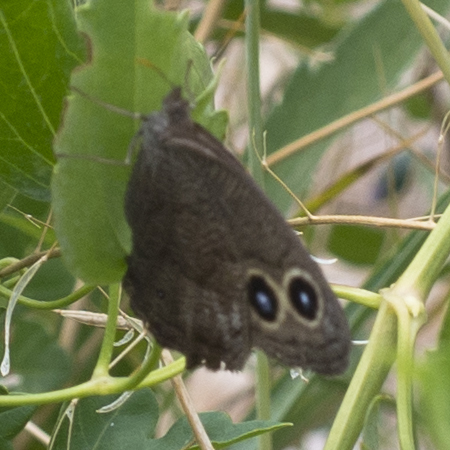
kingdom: Animalia
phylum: Arthropoda
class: Insecta
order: Lepidoptera
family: Nymphalidae
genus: Cercyonis
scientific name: Cercyonis pegala
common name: Common wood-nymph
